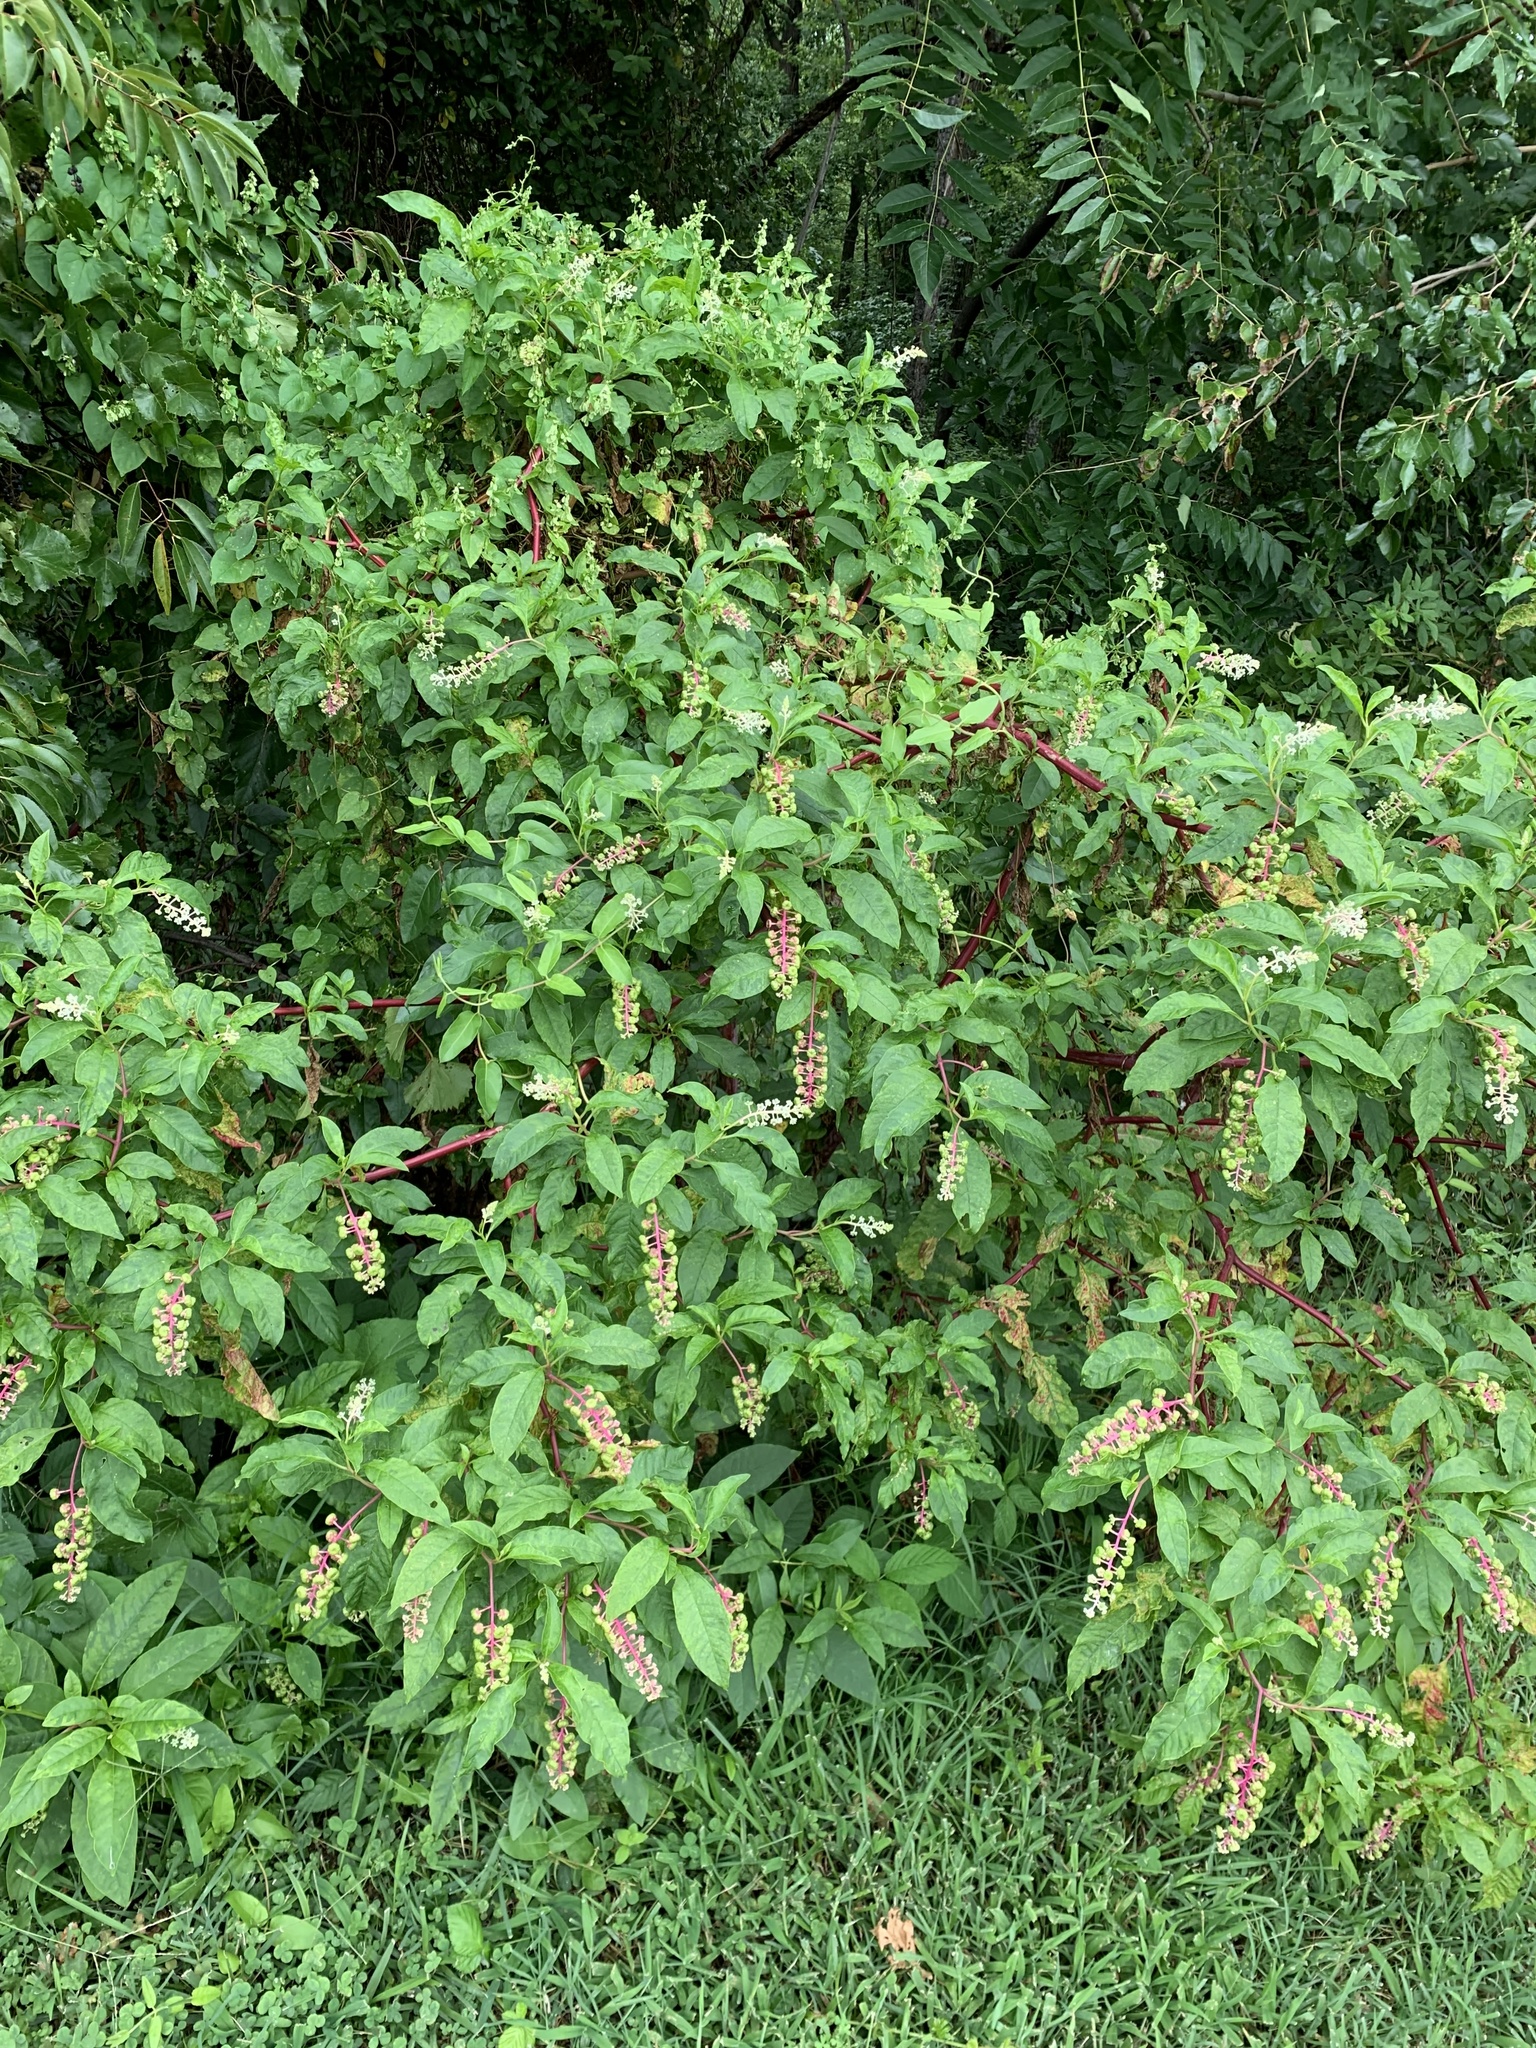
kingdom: Plantae
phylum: Tracheophyta
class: Magnoliopsida
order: Caryophyllales
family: Phytolaccaceae
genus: Phytolacca
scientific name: Phytolacca americana
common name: American pokeweed
